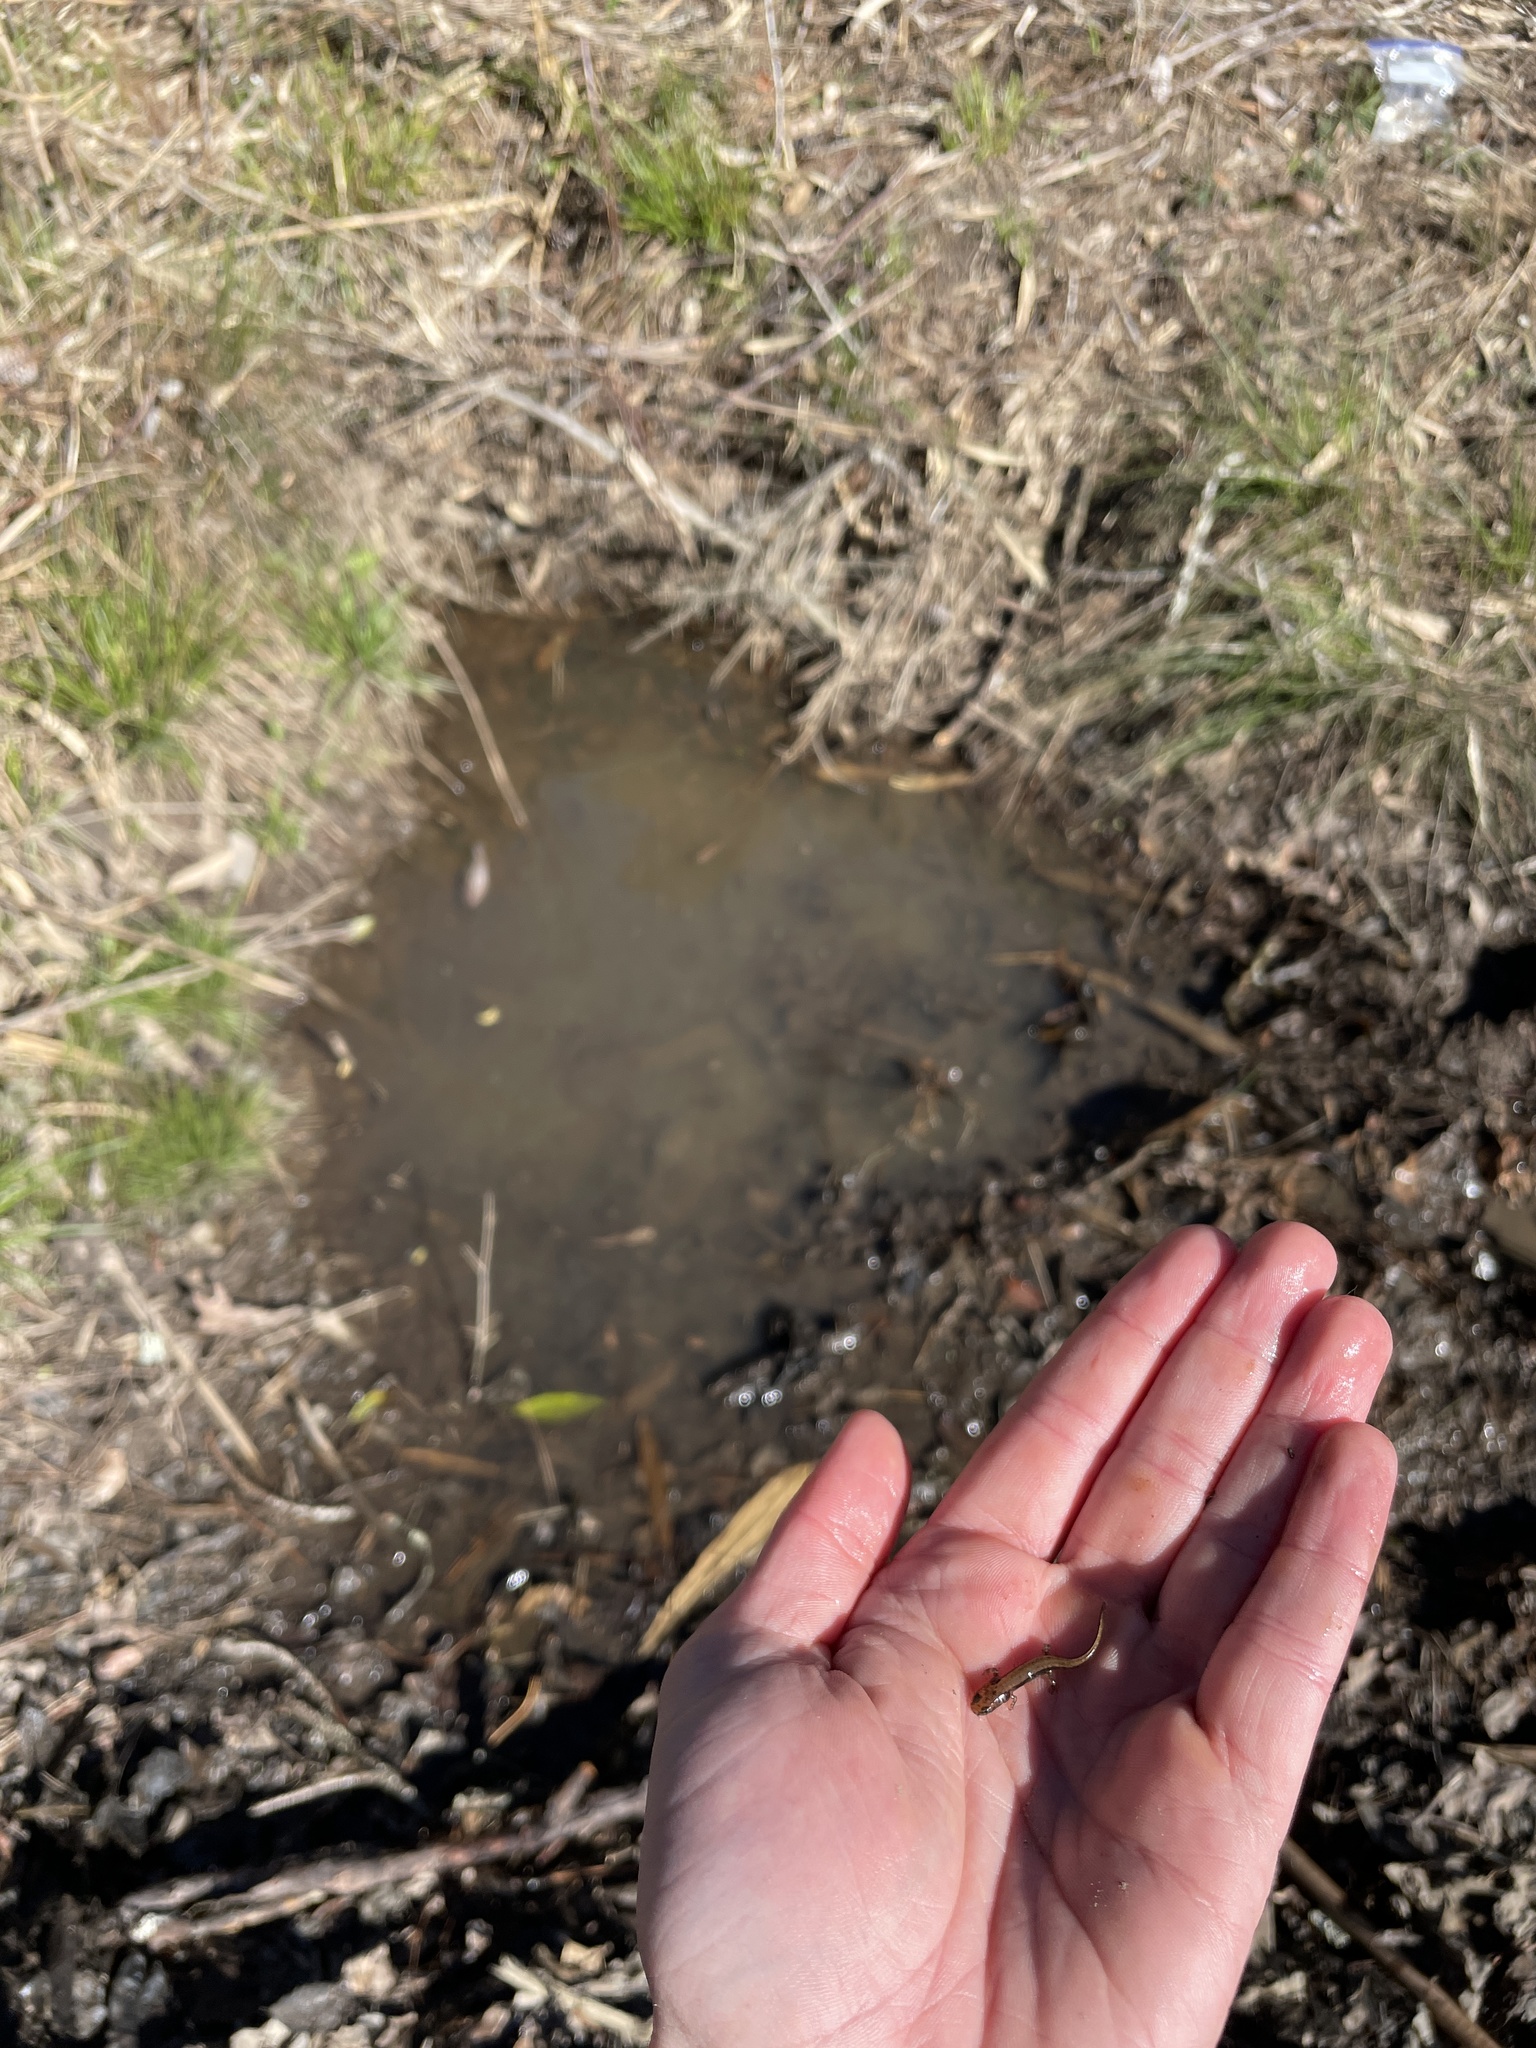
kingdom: Animalia
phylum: Chordata
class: Amphibia
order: Caudata
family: Plethodontidae
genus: Eurycea
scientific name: Eurycea guttolineata
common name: Three-lined salamander
